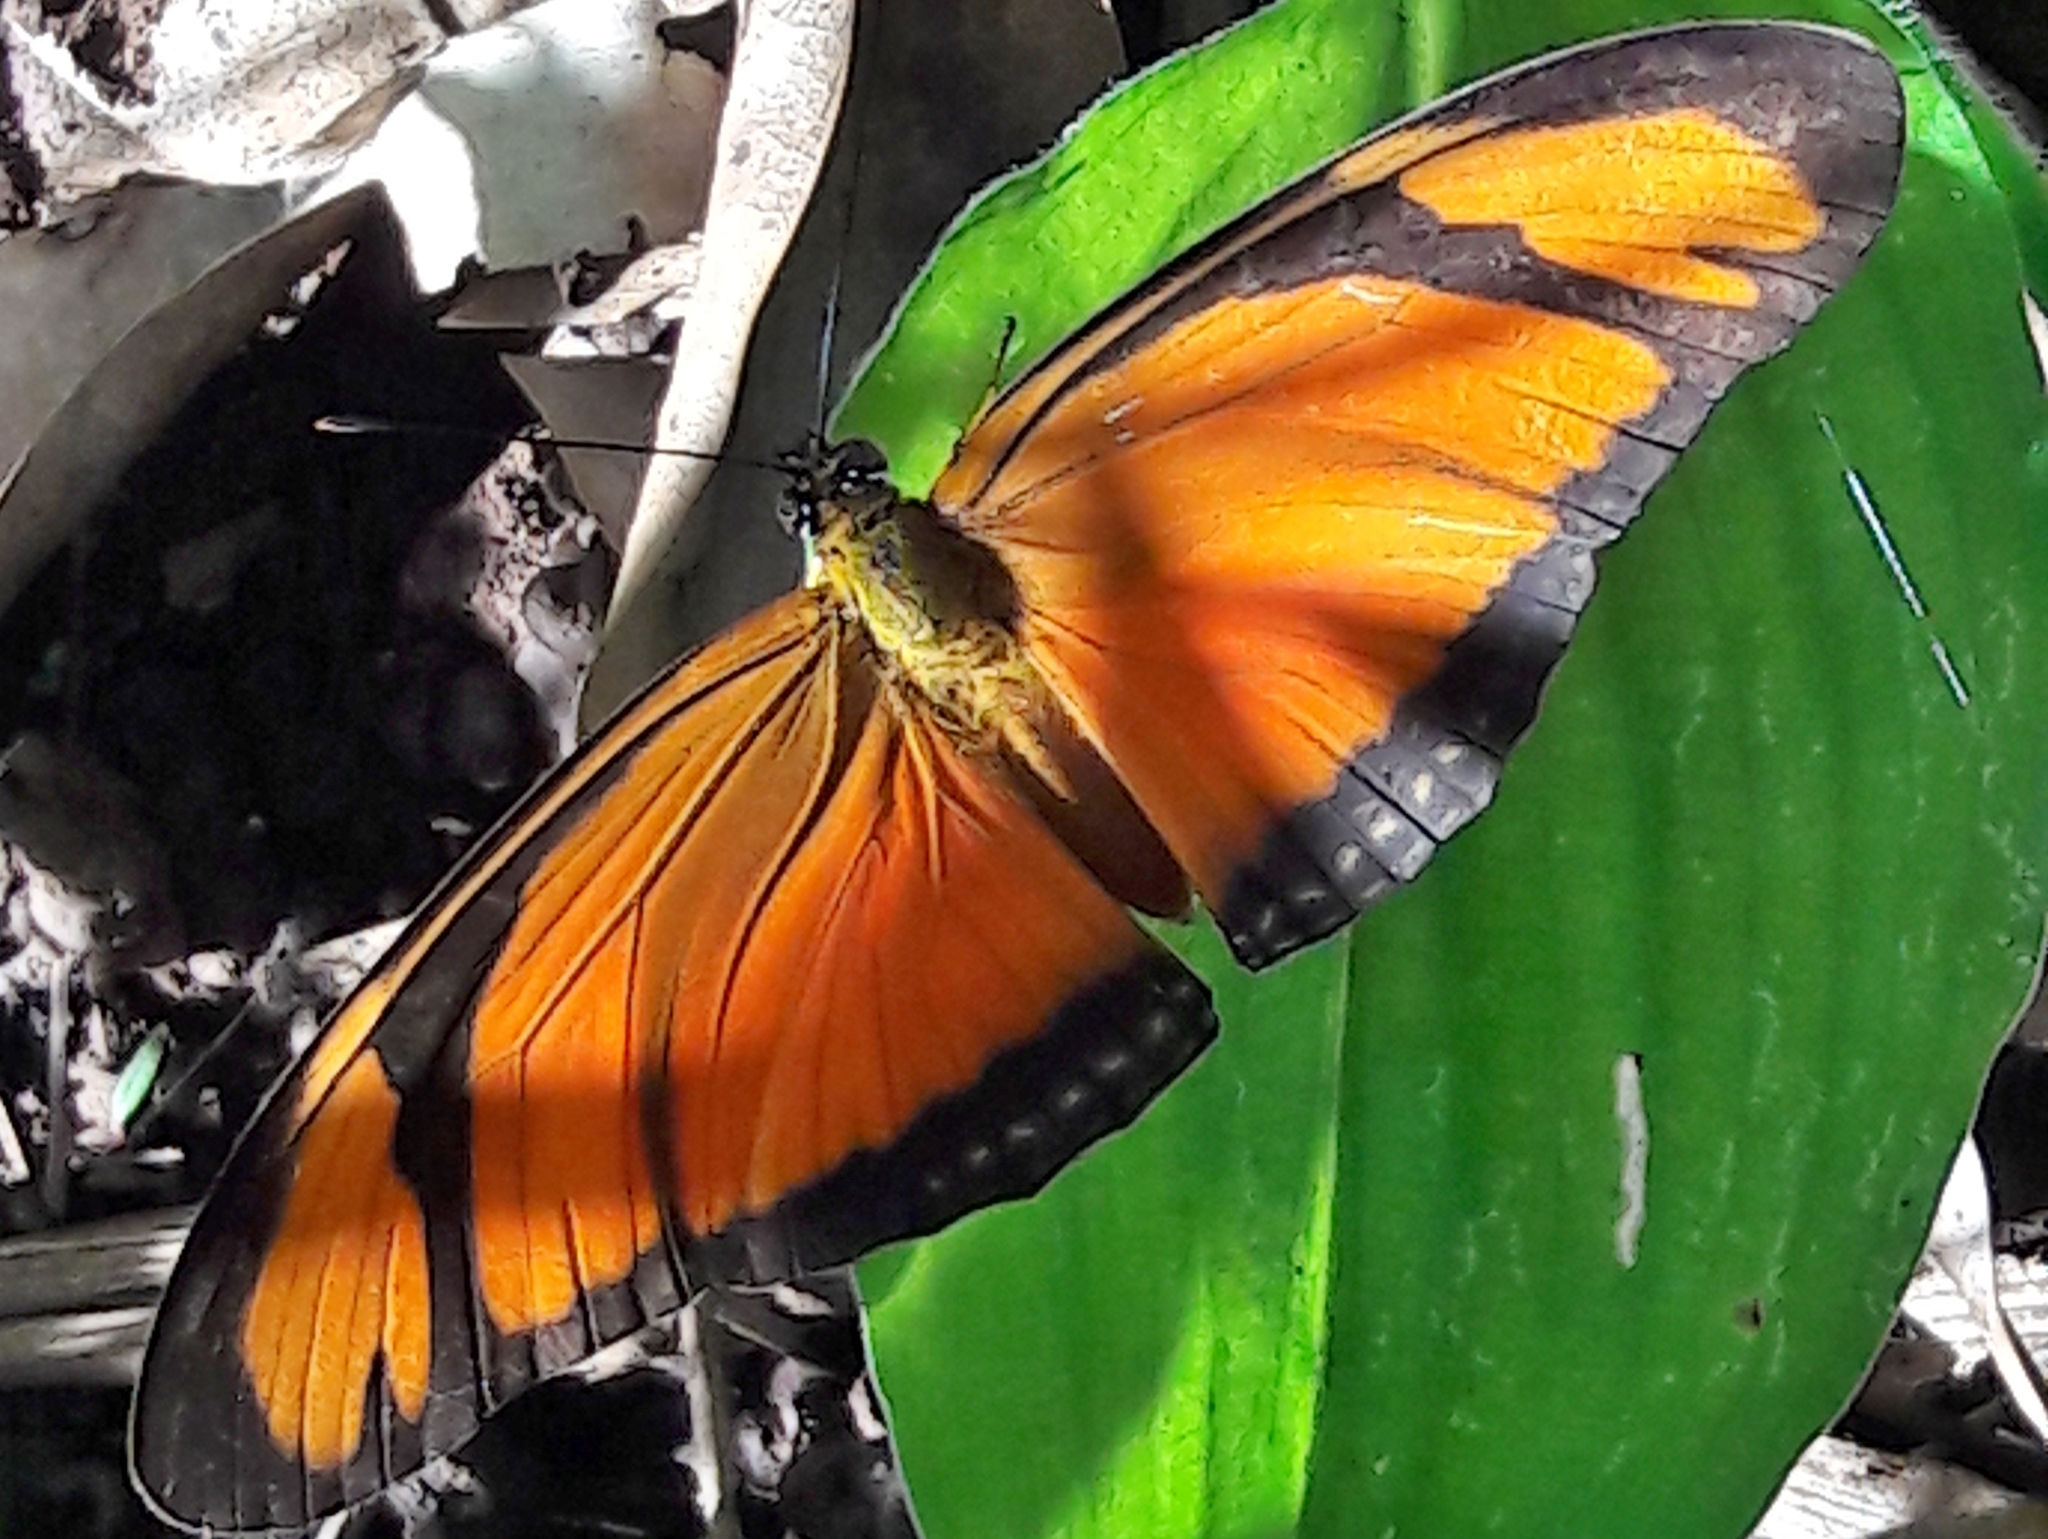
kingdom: Animalia
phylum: Arthropoda
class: Insecta
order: Lepidoptera
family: Nymphalidae
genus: Dryas
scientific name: Dryas iulia
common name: Flambeau
